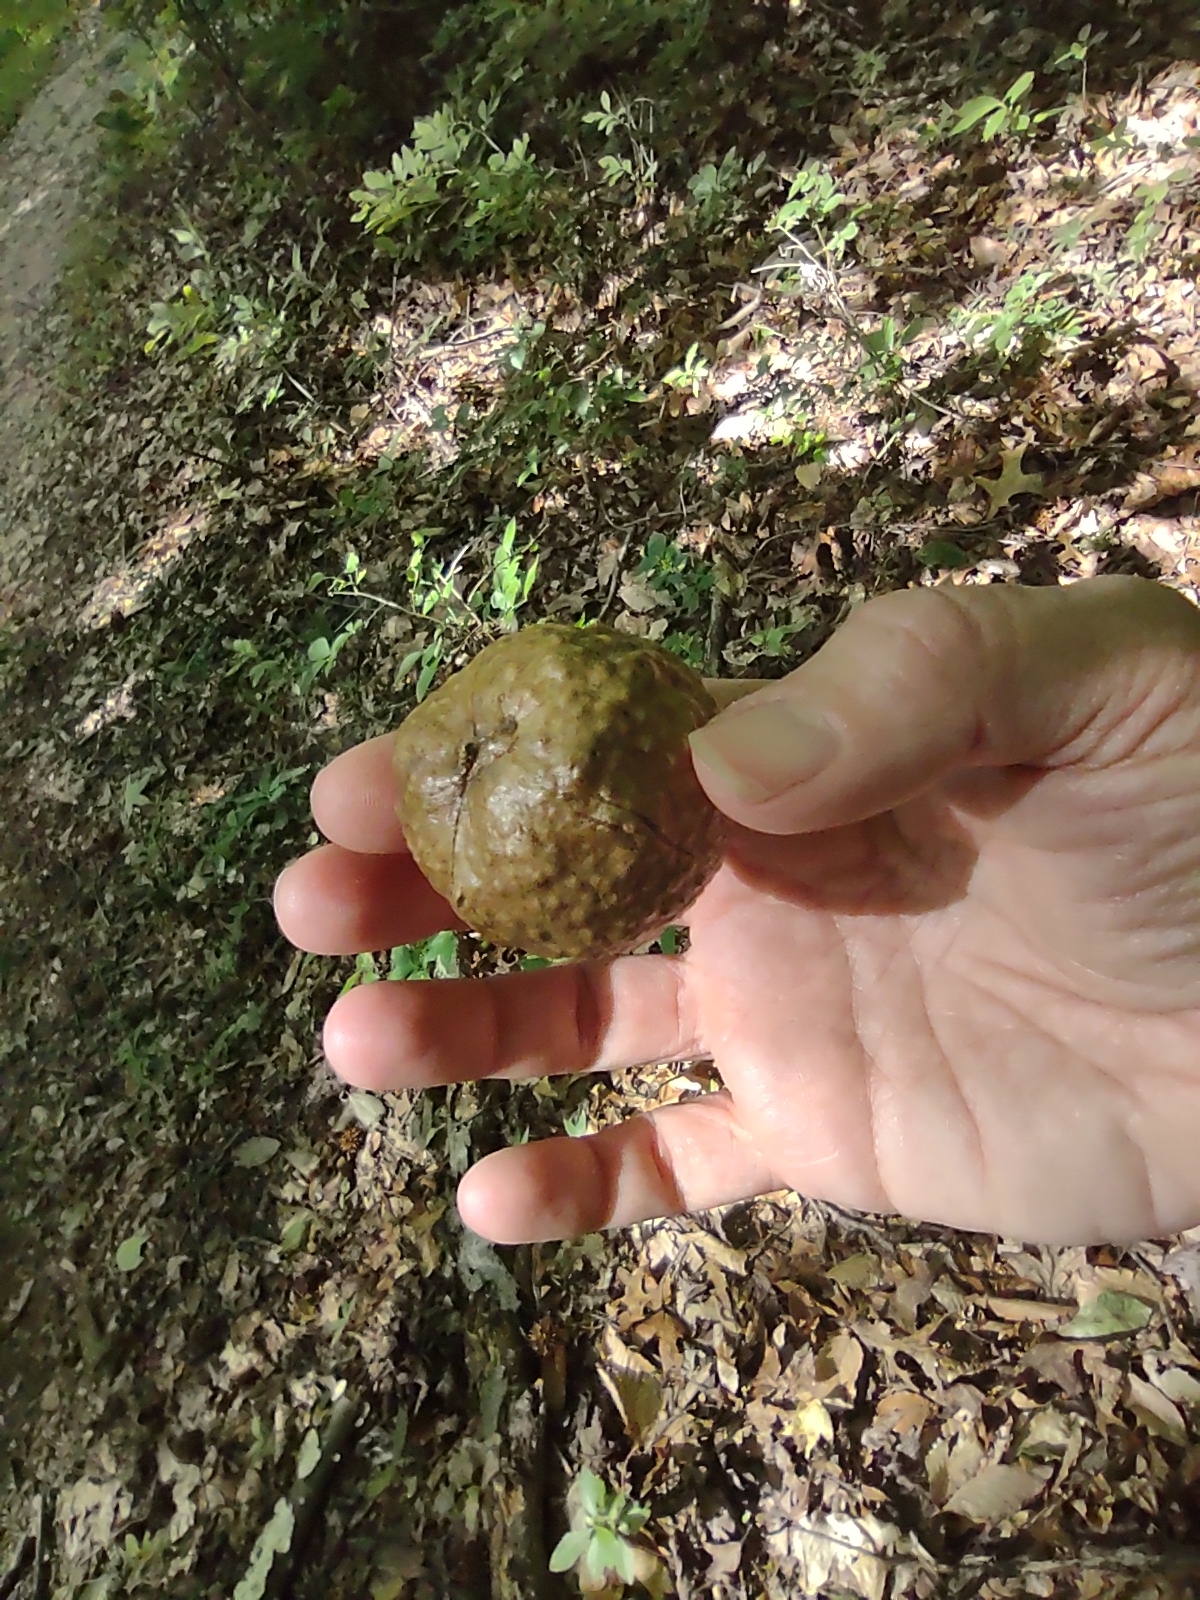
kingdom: Animalia
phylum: Arthropoda
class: Insecta
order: Hymenoptera
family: Cynipidae
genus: Amphibolips
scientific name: Amphibolips
